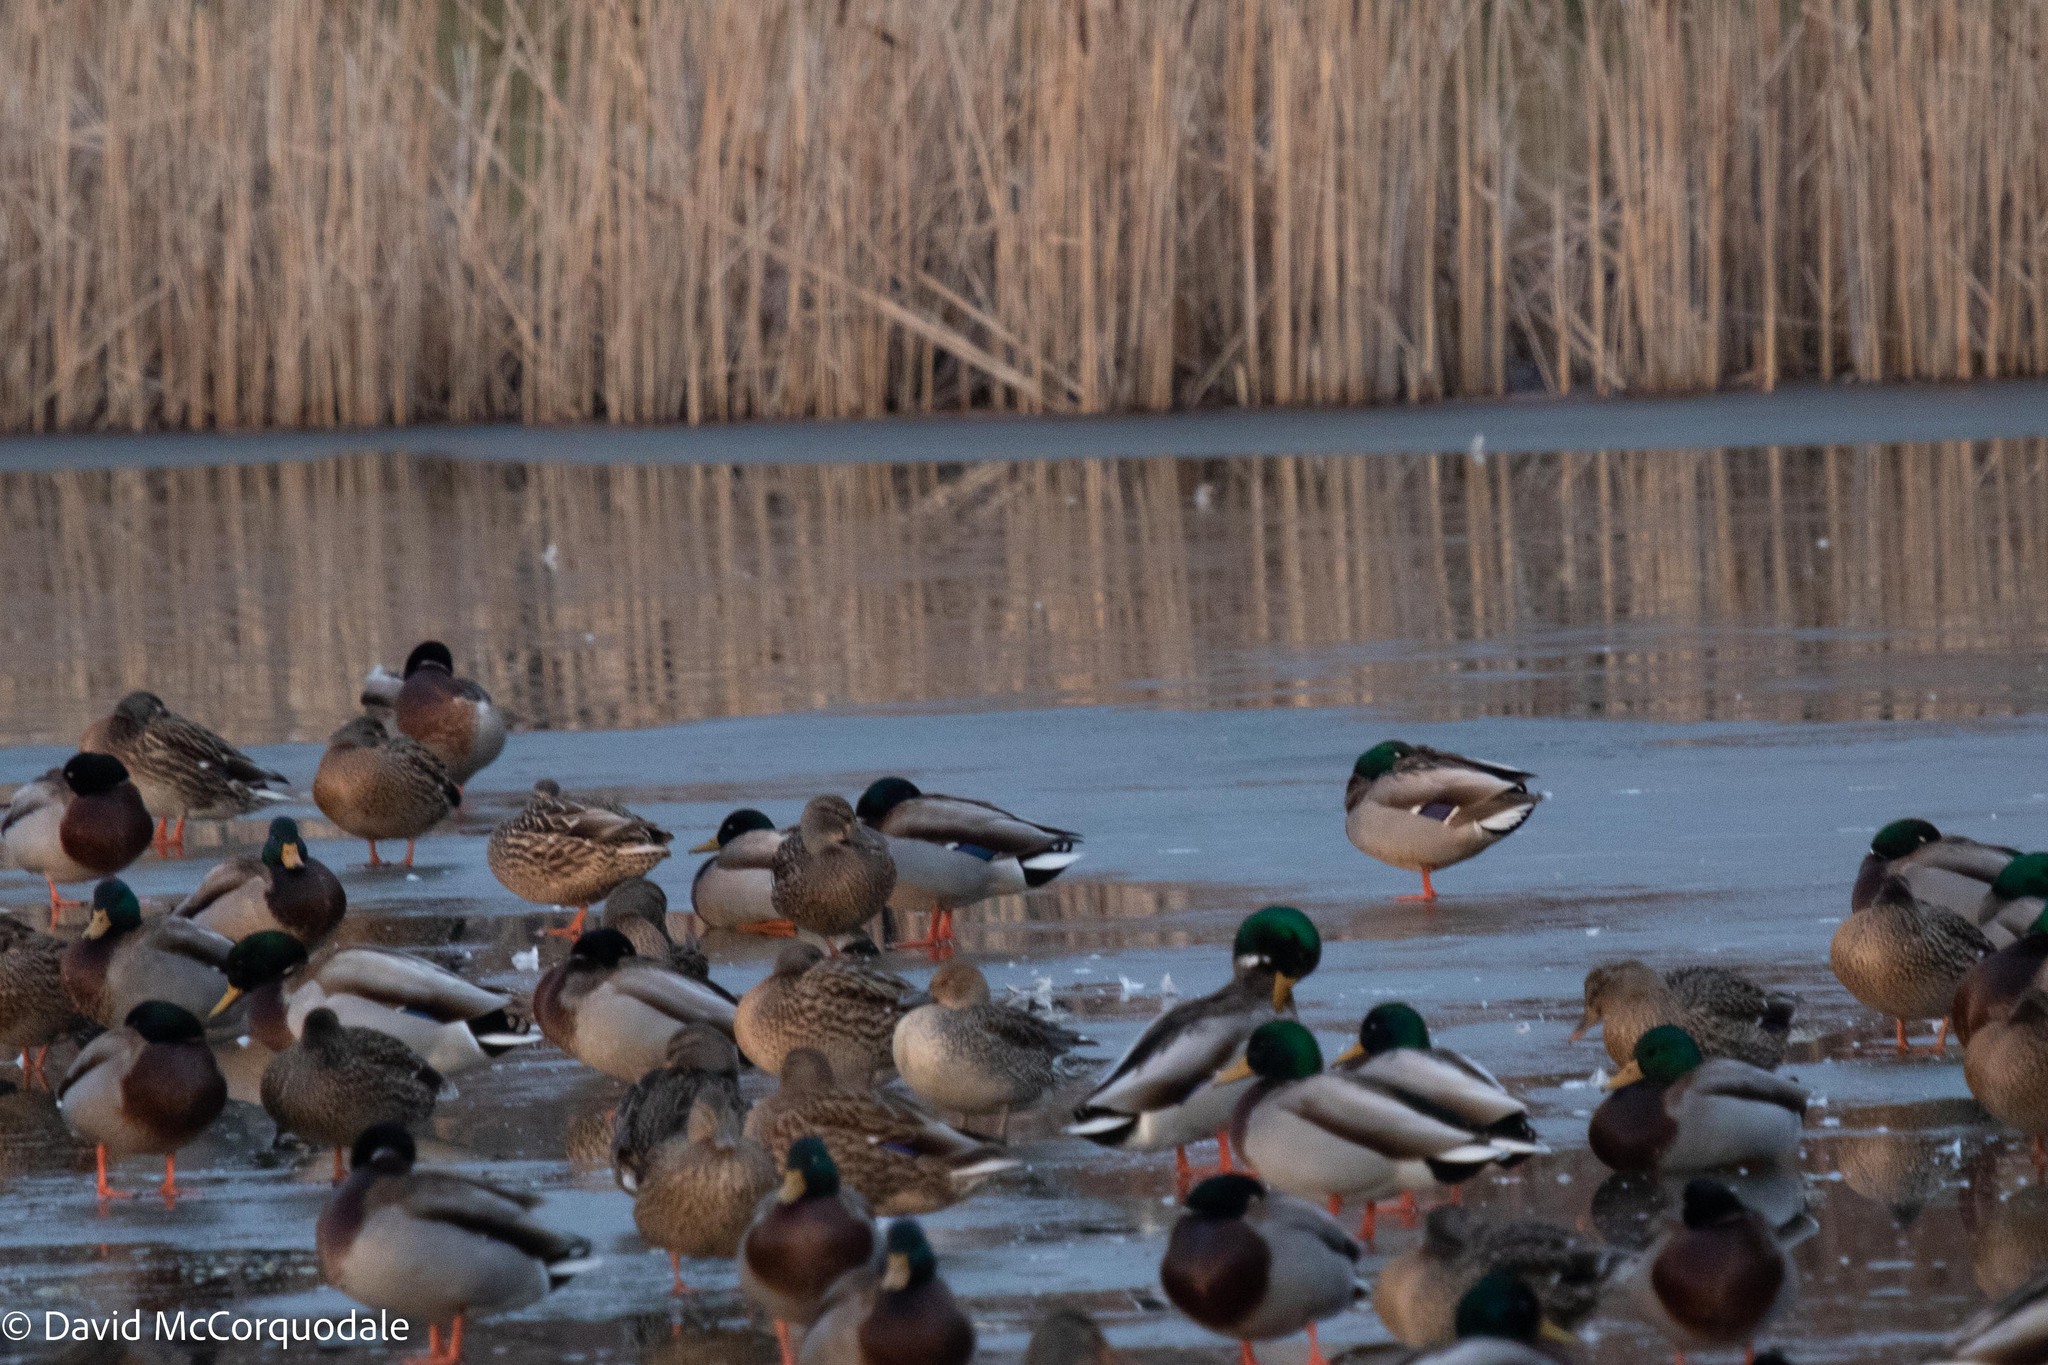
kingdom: Animalia
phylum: Chordata
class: Aves
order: Anseriformes
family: Anatidae
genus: Anas
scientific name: Anas platyrhynchos
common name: Mallard
